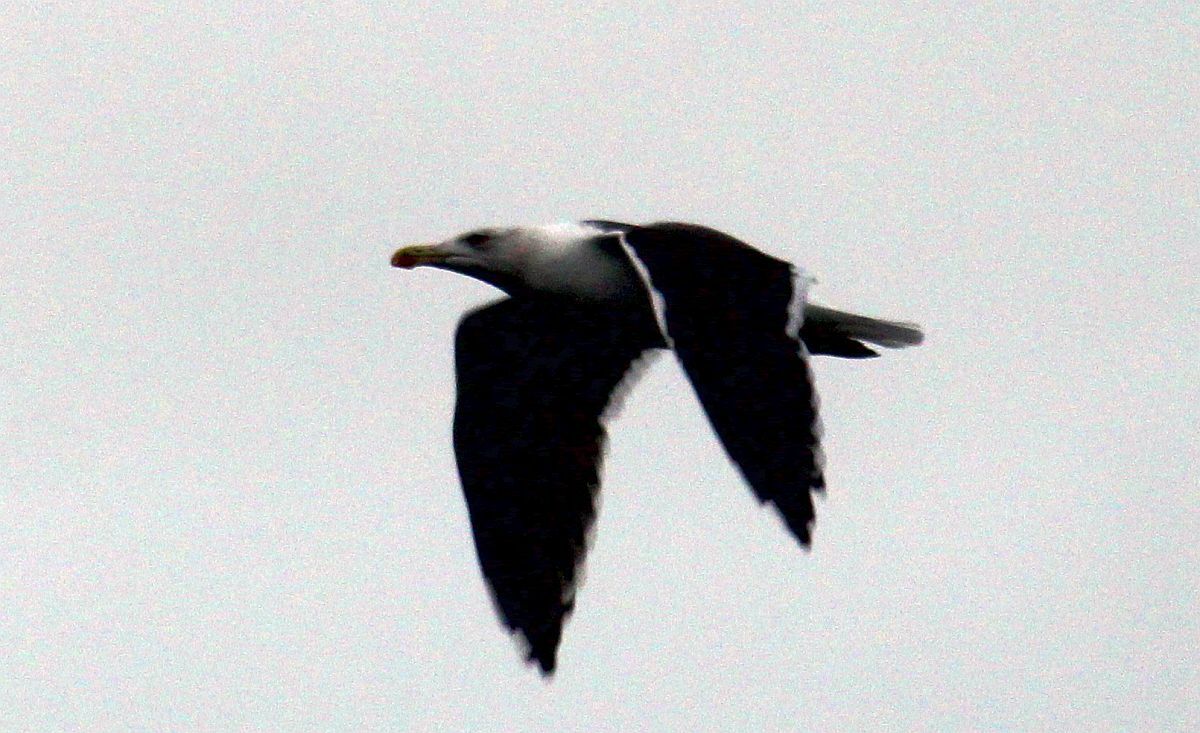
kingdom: Animalia
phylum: Chordata
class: Aves
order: Charadriiformes
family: Laridae
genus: Larus
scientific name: Larus marinus
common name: Great black-backed gull
